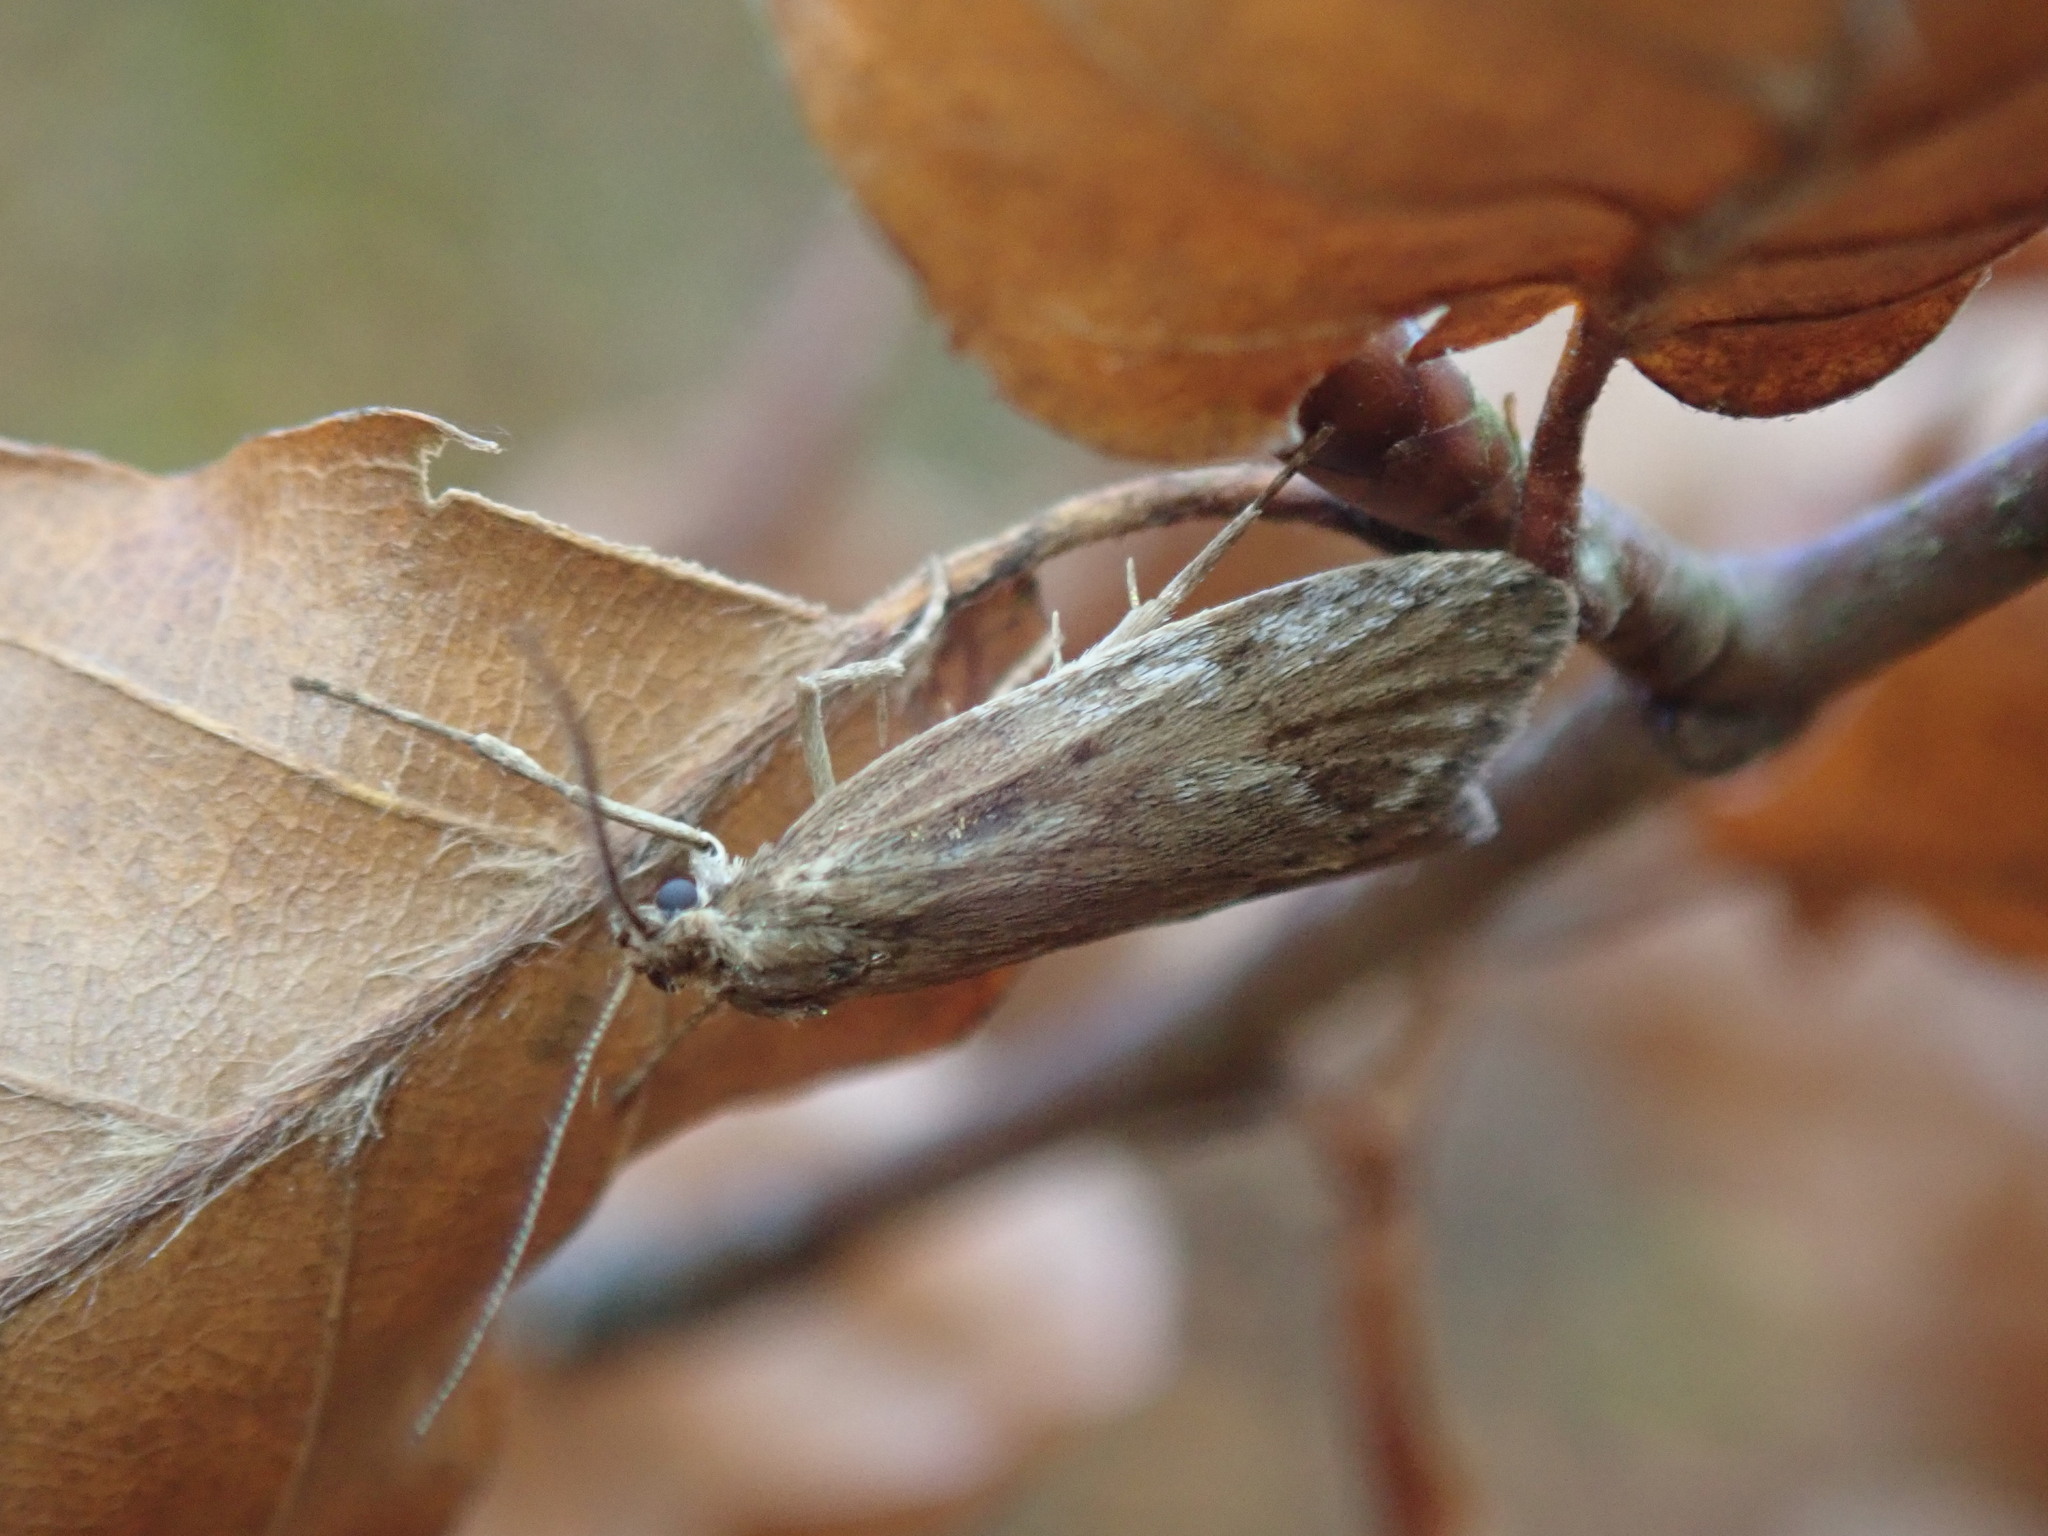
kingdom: Animalia
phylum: Arthropoda
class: Insecta
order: Lepidoptera
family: Lypusidae
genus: Diurnea
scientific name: Diurnea lipsiella
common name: November tubic
